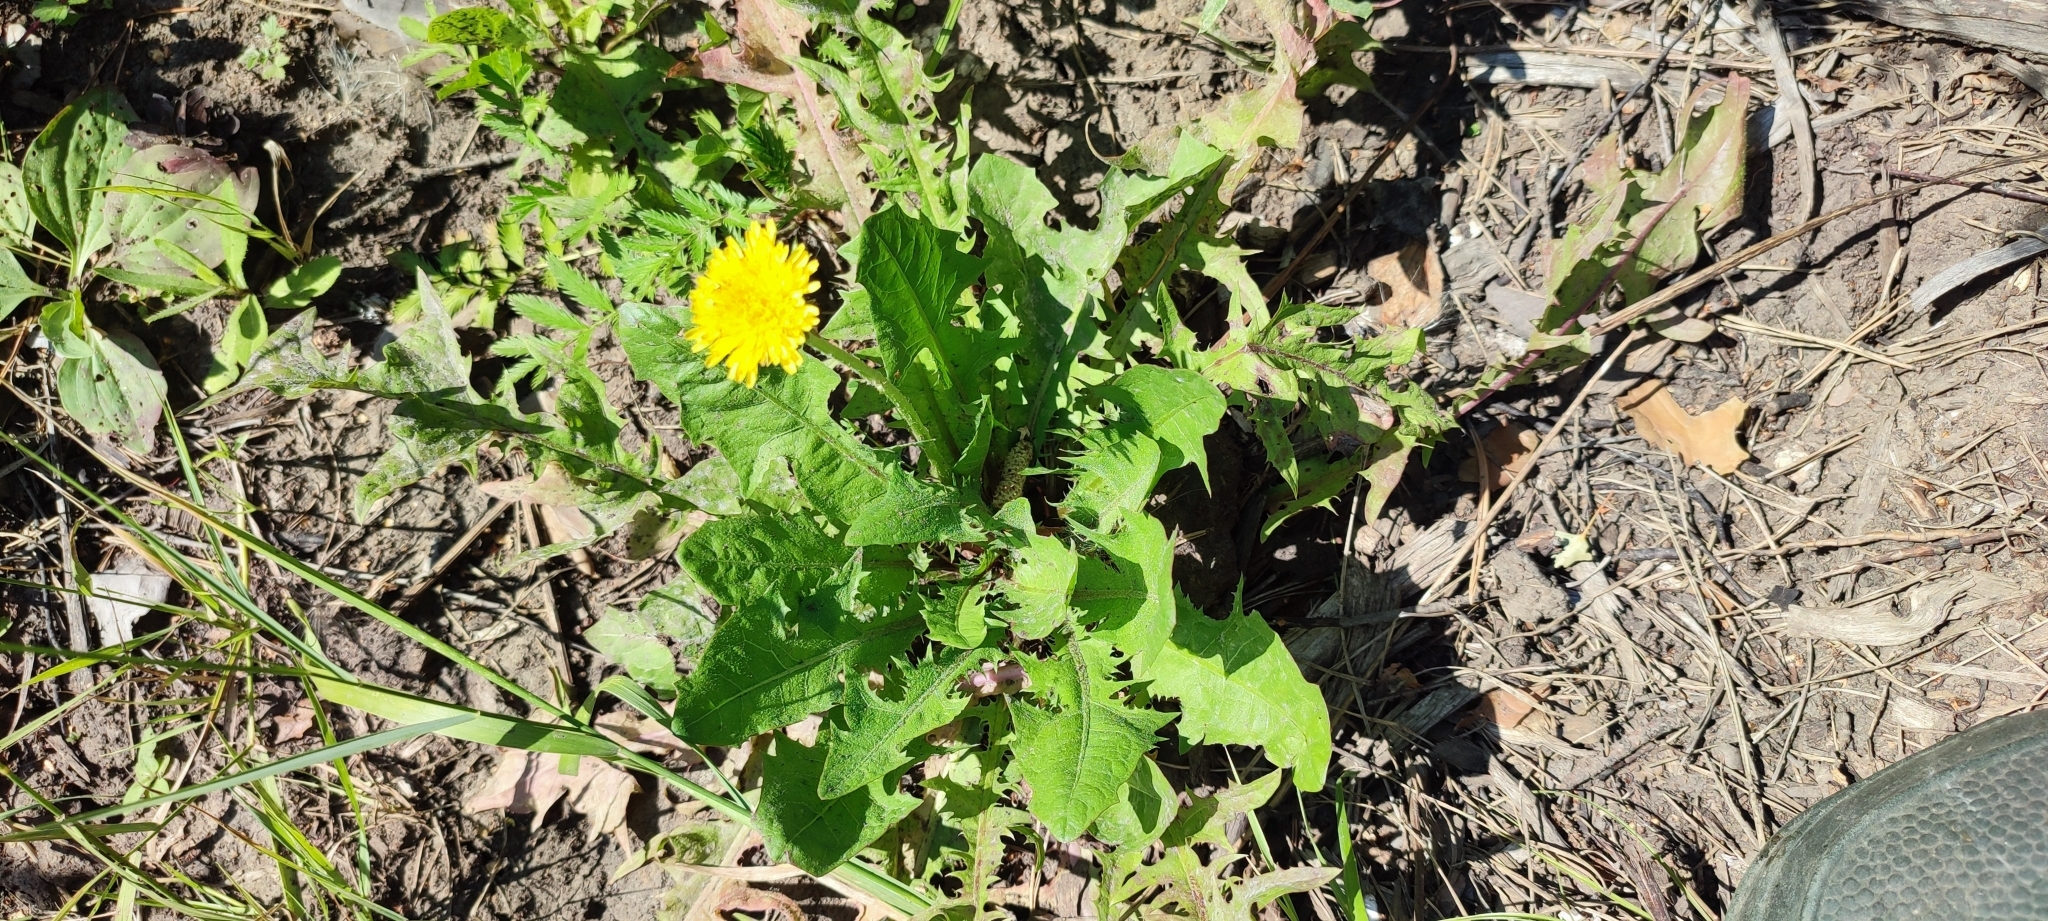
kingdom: Plantae
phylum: Tracheophyta
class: Magnoliopsida
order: Asterales
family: Asteraceae
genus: Taraxacum
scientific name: Taraxacum officinale
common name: Common dandelion
